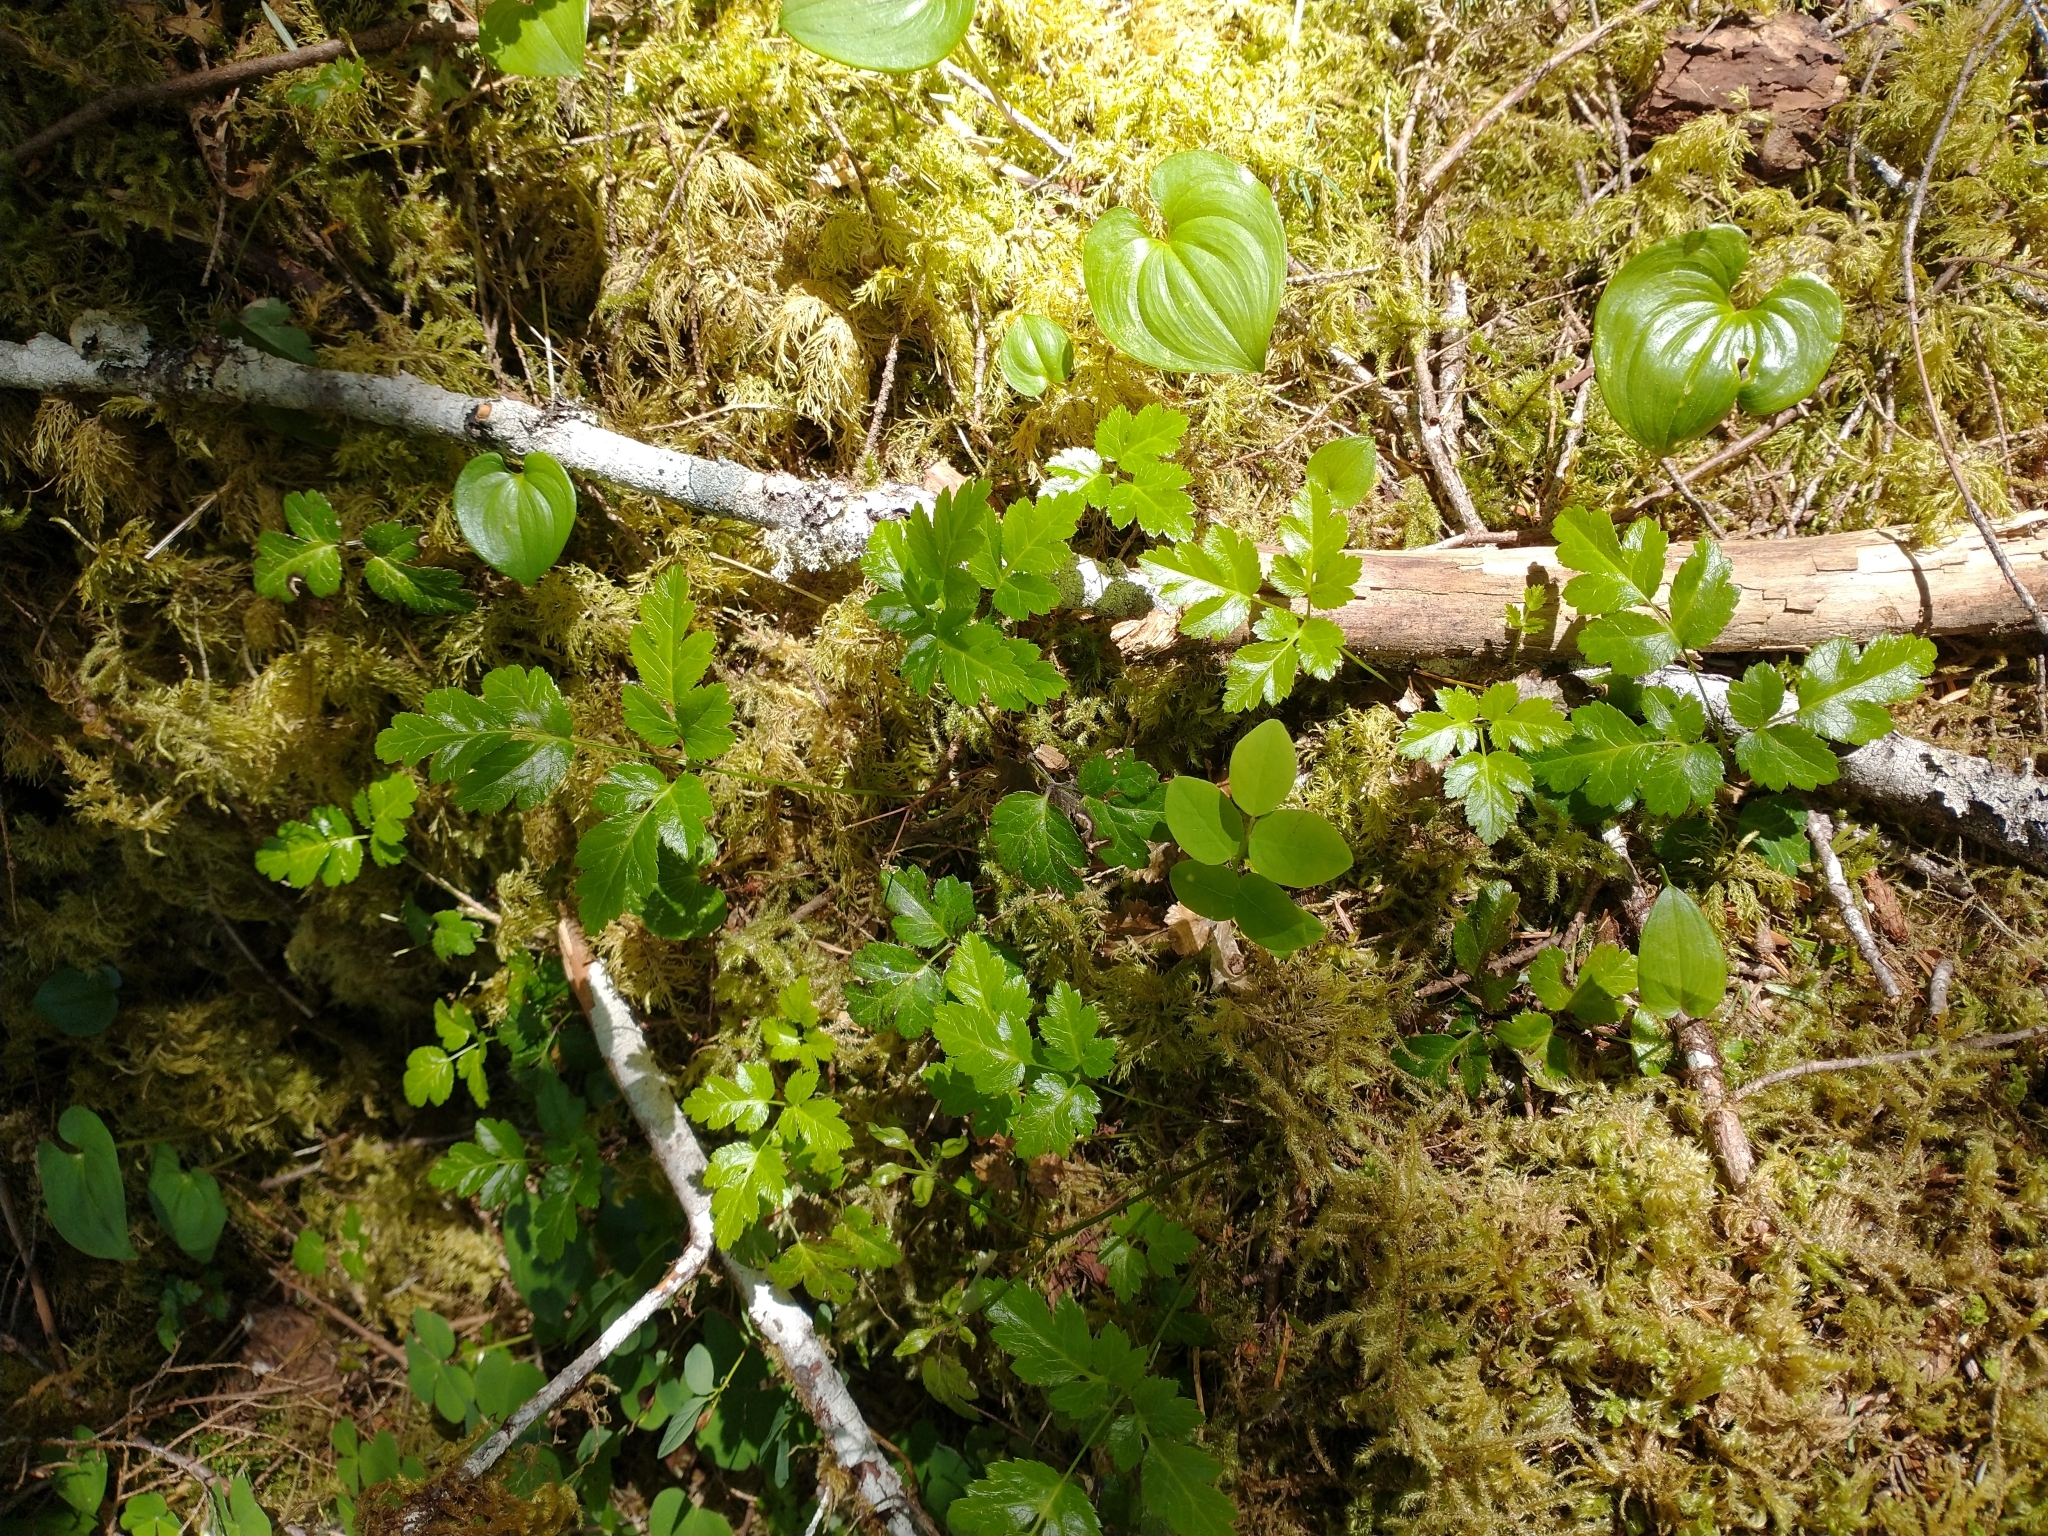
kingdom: Plantae
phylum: Tracheophyta
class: Magnoliopsida
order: Ranunculales
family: Ranunculaceae
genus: Coptis
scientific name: Coptis laciniata
